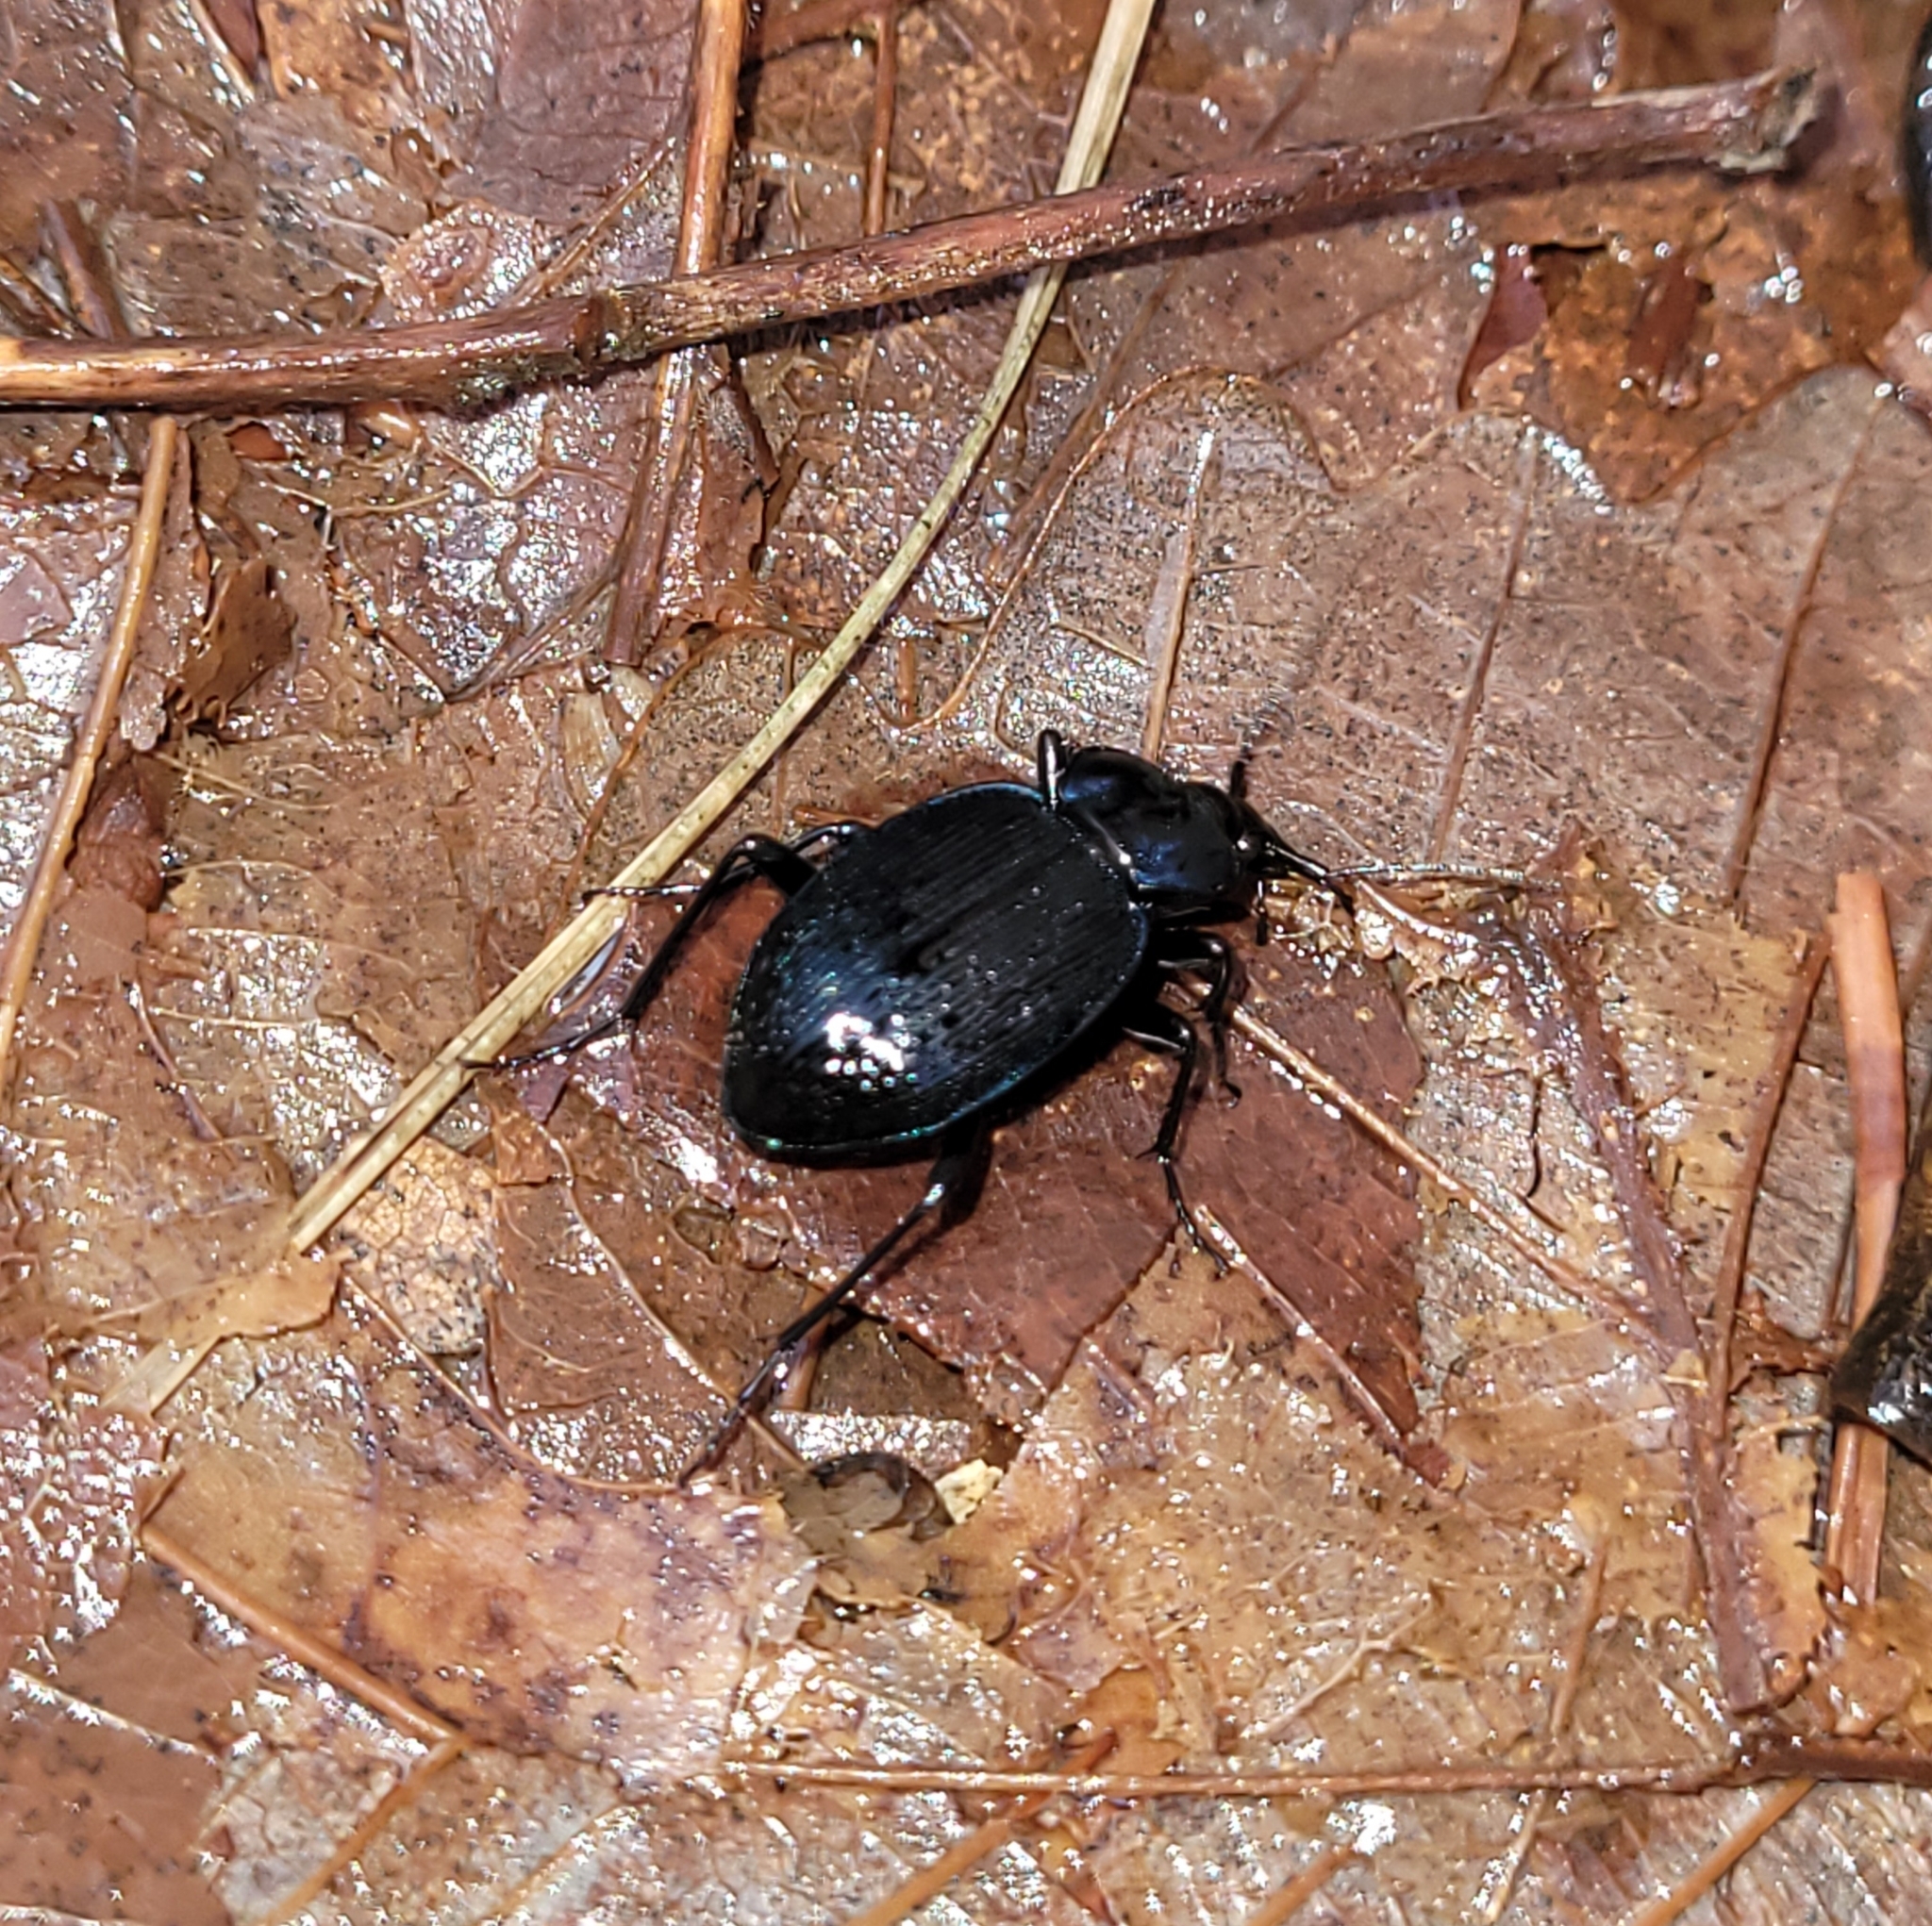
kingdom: Animalia
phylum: Arthropoda
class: Insecta
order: Coleoptera
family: Carabidae
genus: Sphaeroderus
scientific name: Sphaeroderus stenostomus
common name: Small snail-eating ground beetle
